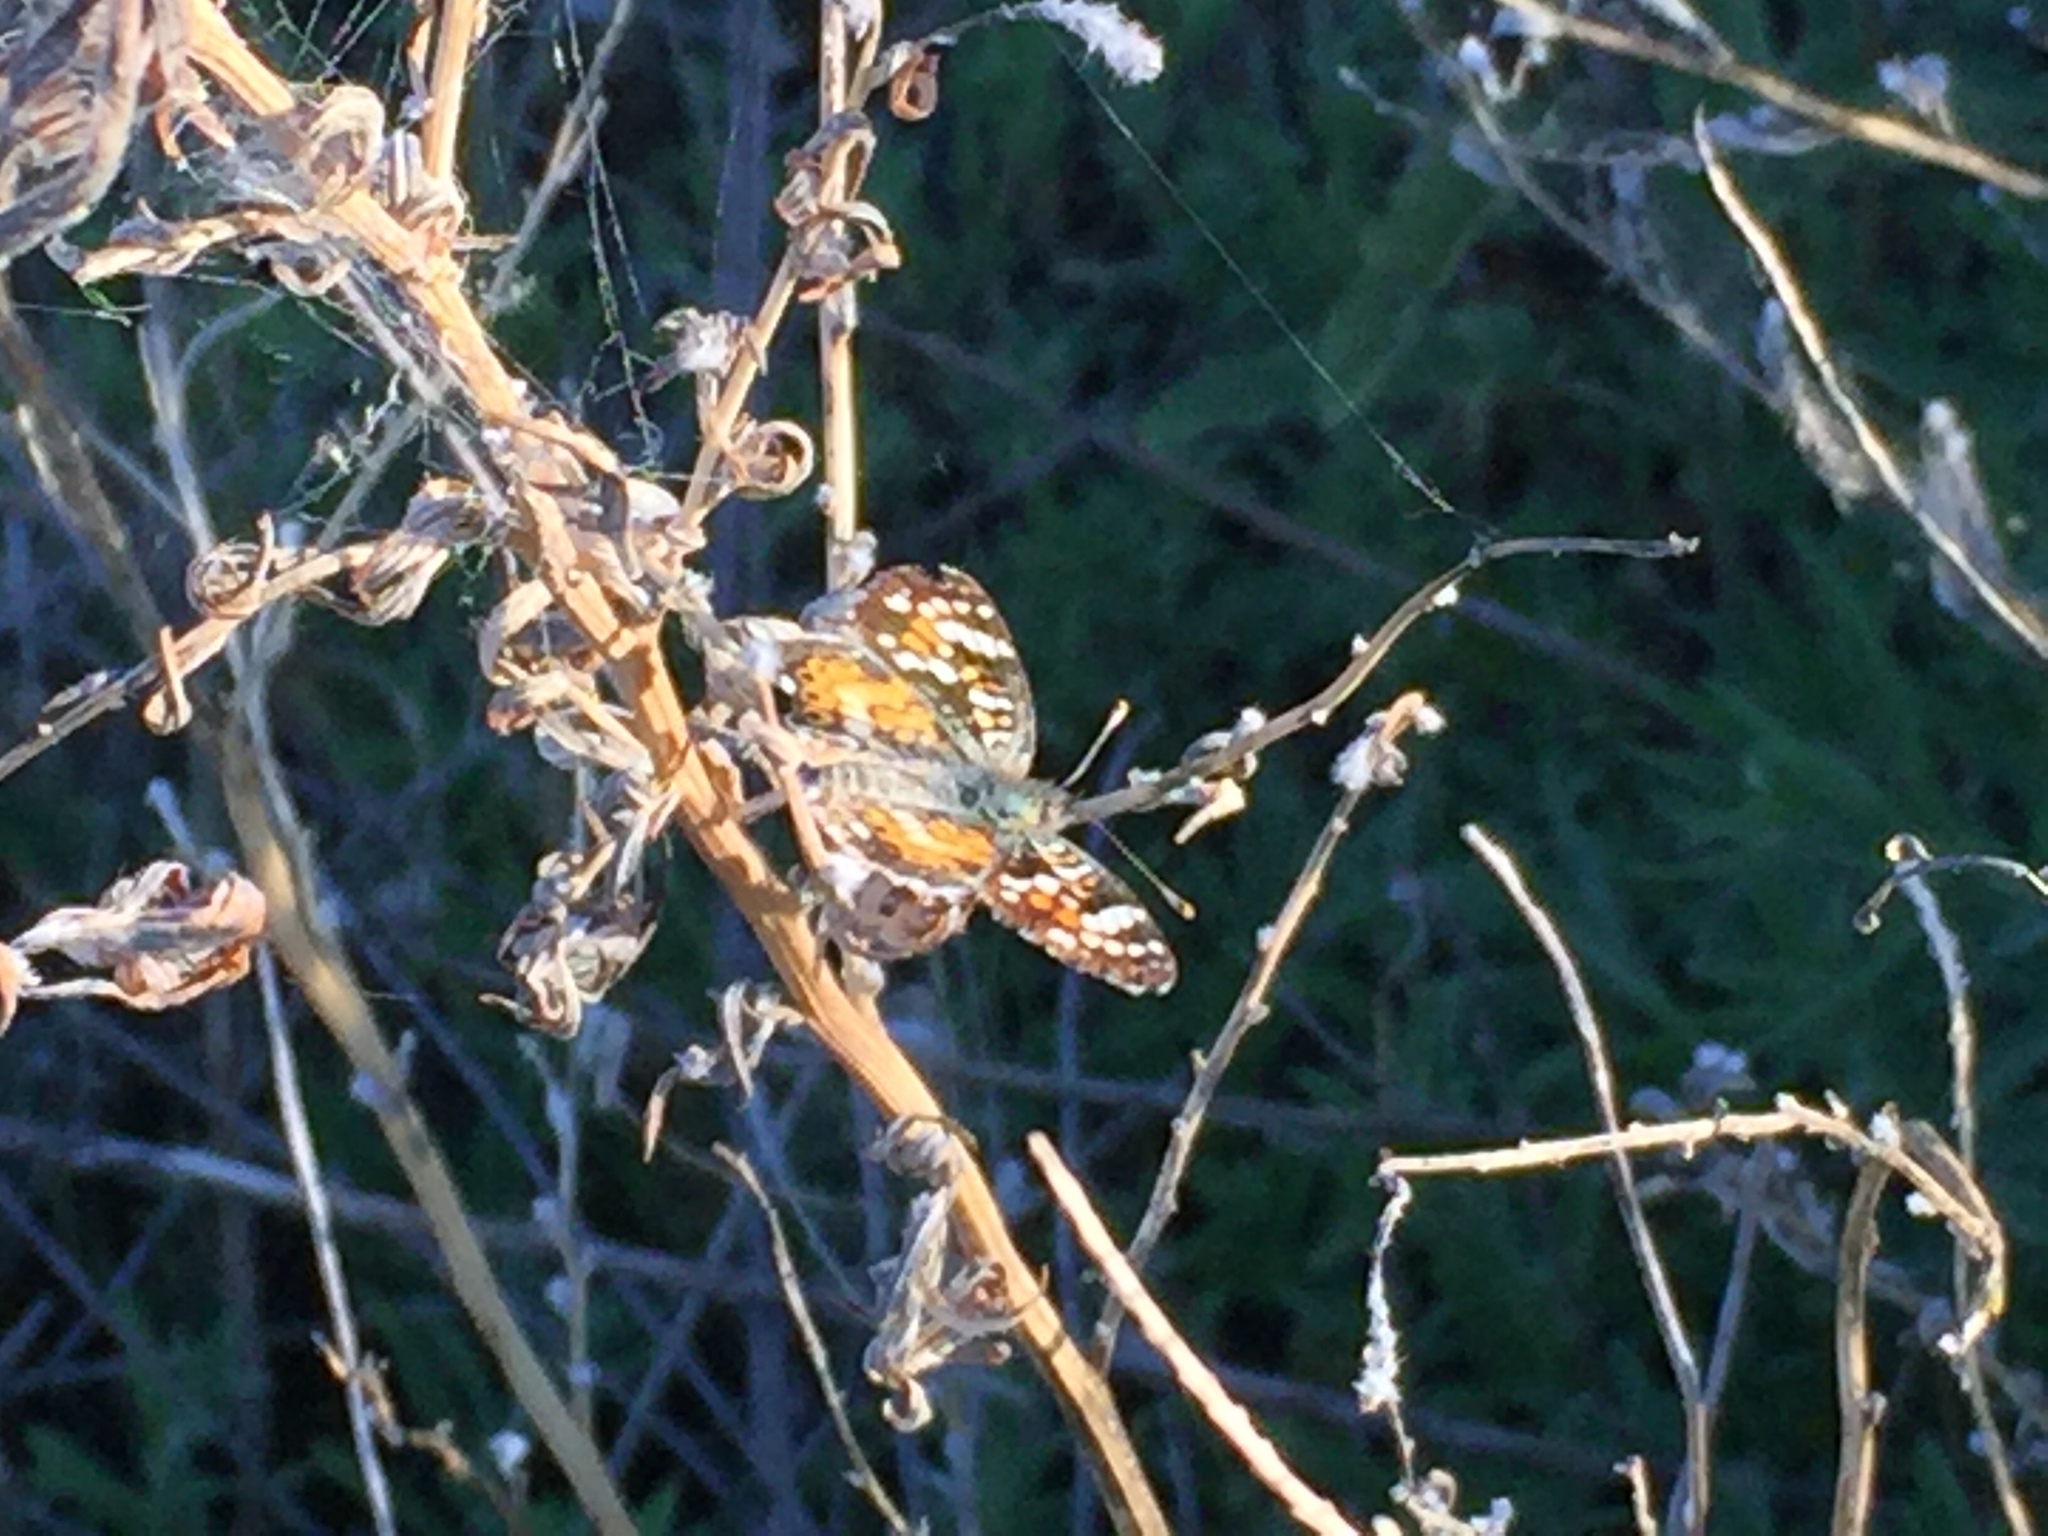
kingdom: Animalia
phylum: Arthropoda
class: Insecta
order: Lepidoptera
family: Nymphalidae
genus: Phyciodes
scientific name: Phyciodes picta
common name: Painted crescent
